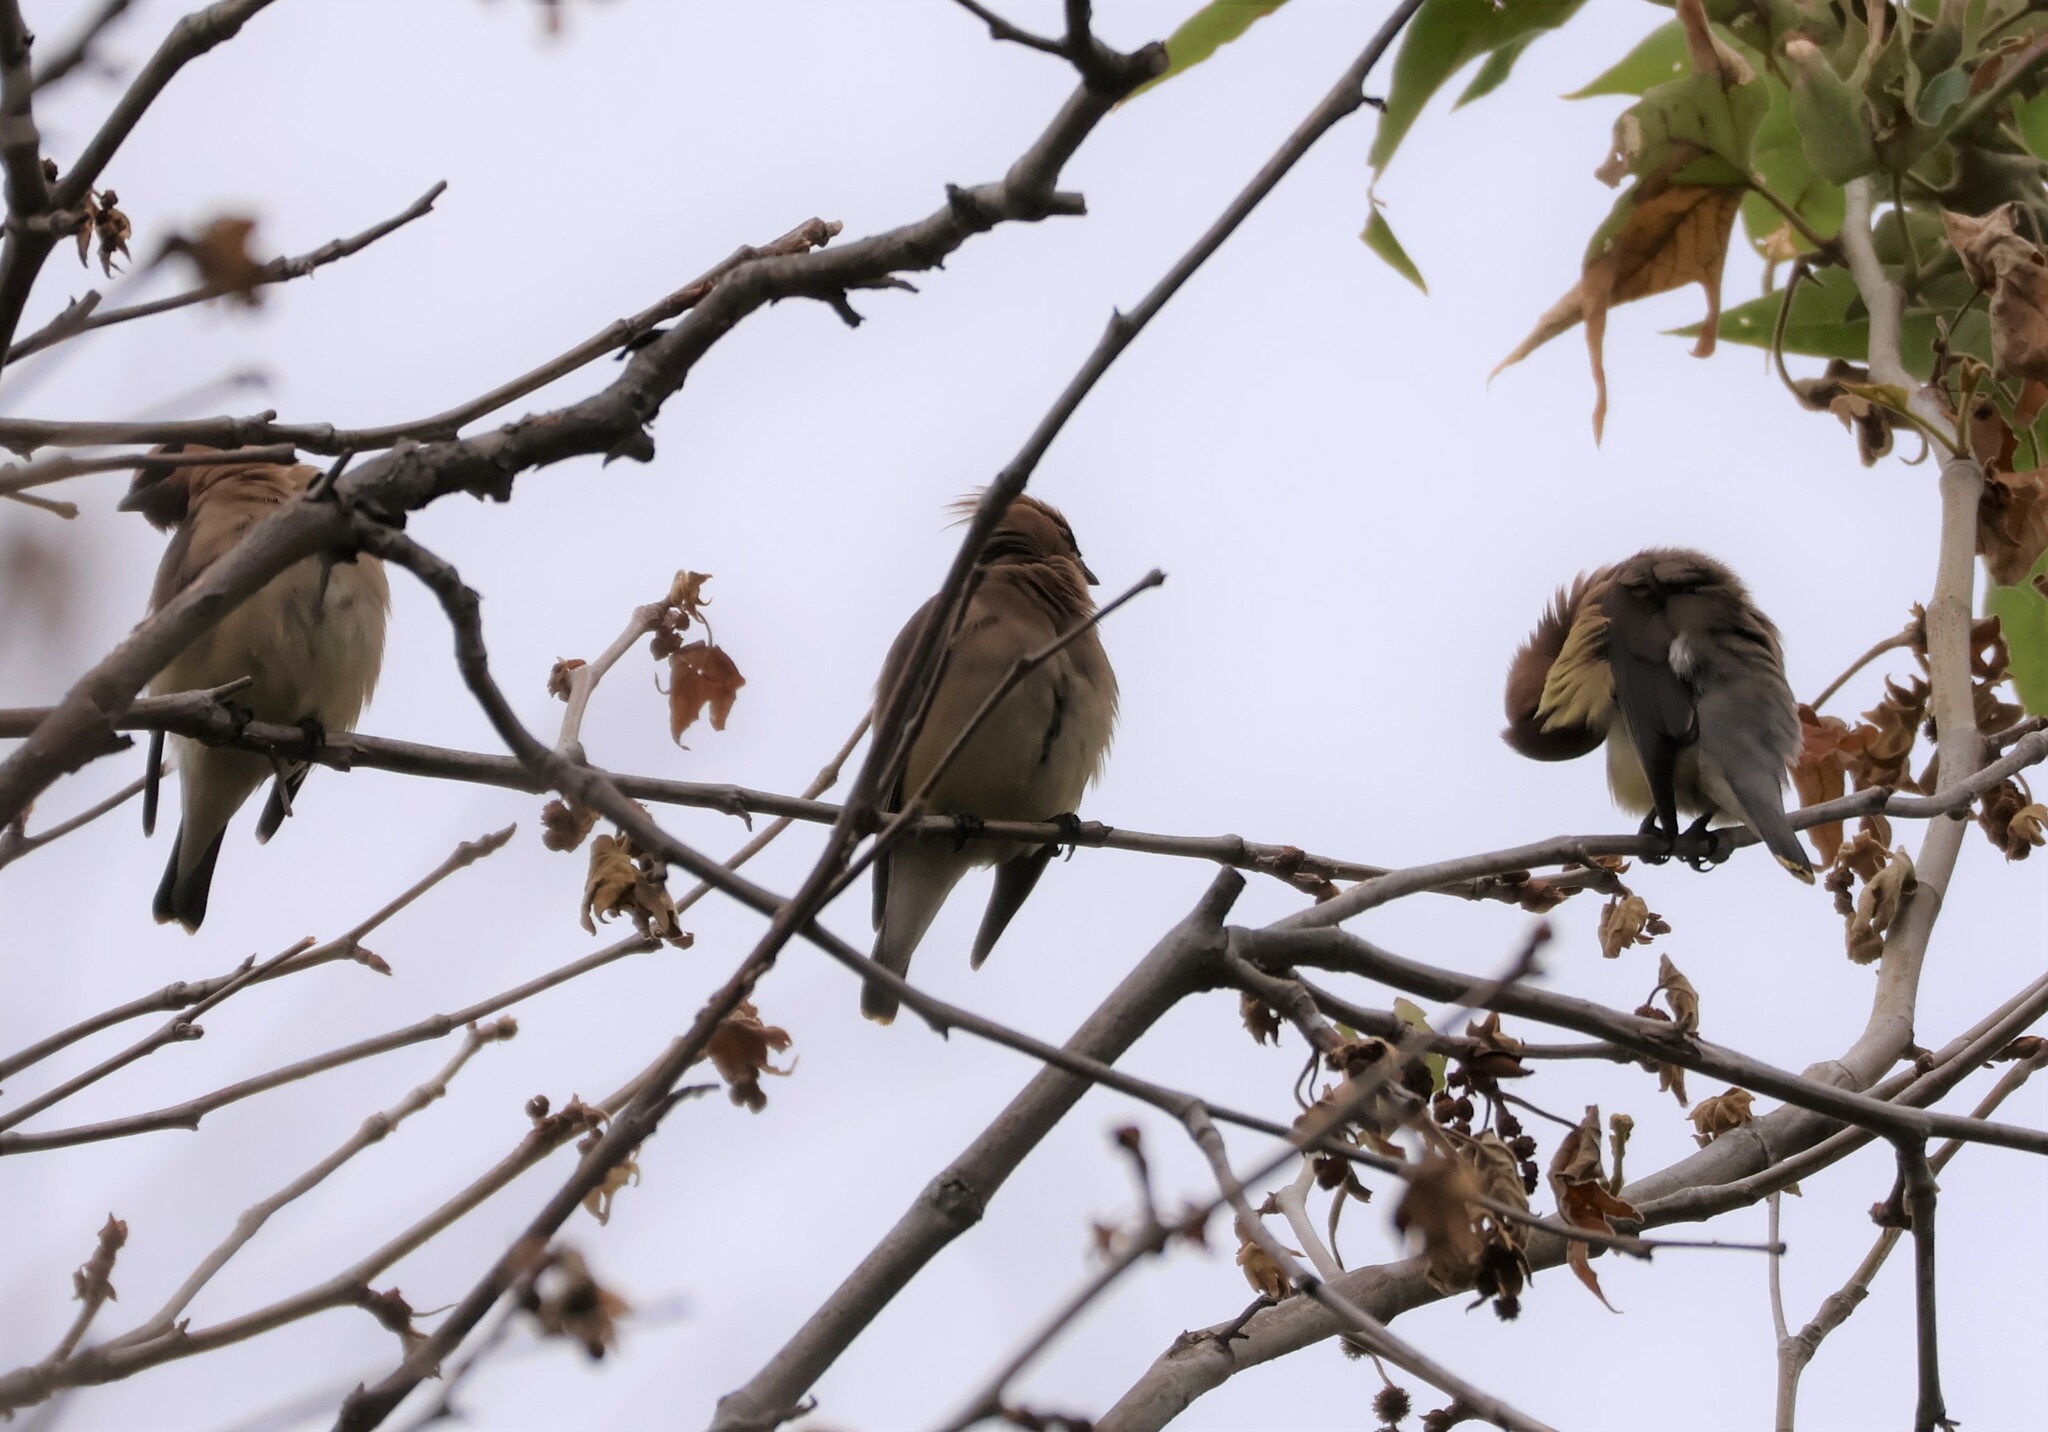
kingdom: Animalia
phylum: Chordata
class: Aves
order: Passeriformes
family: Bombycillidae
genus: Bombycilla
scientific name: Bombycilla cedrorum
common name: Cedar waxwing
